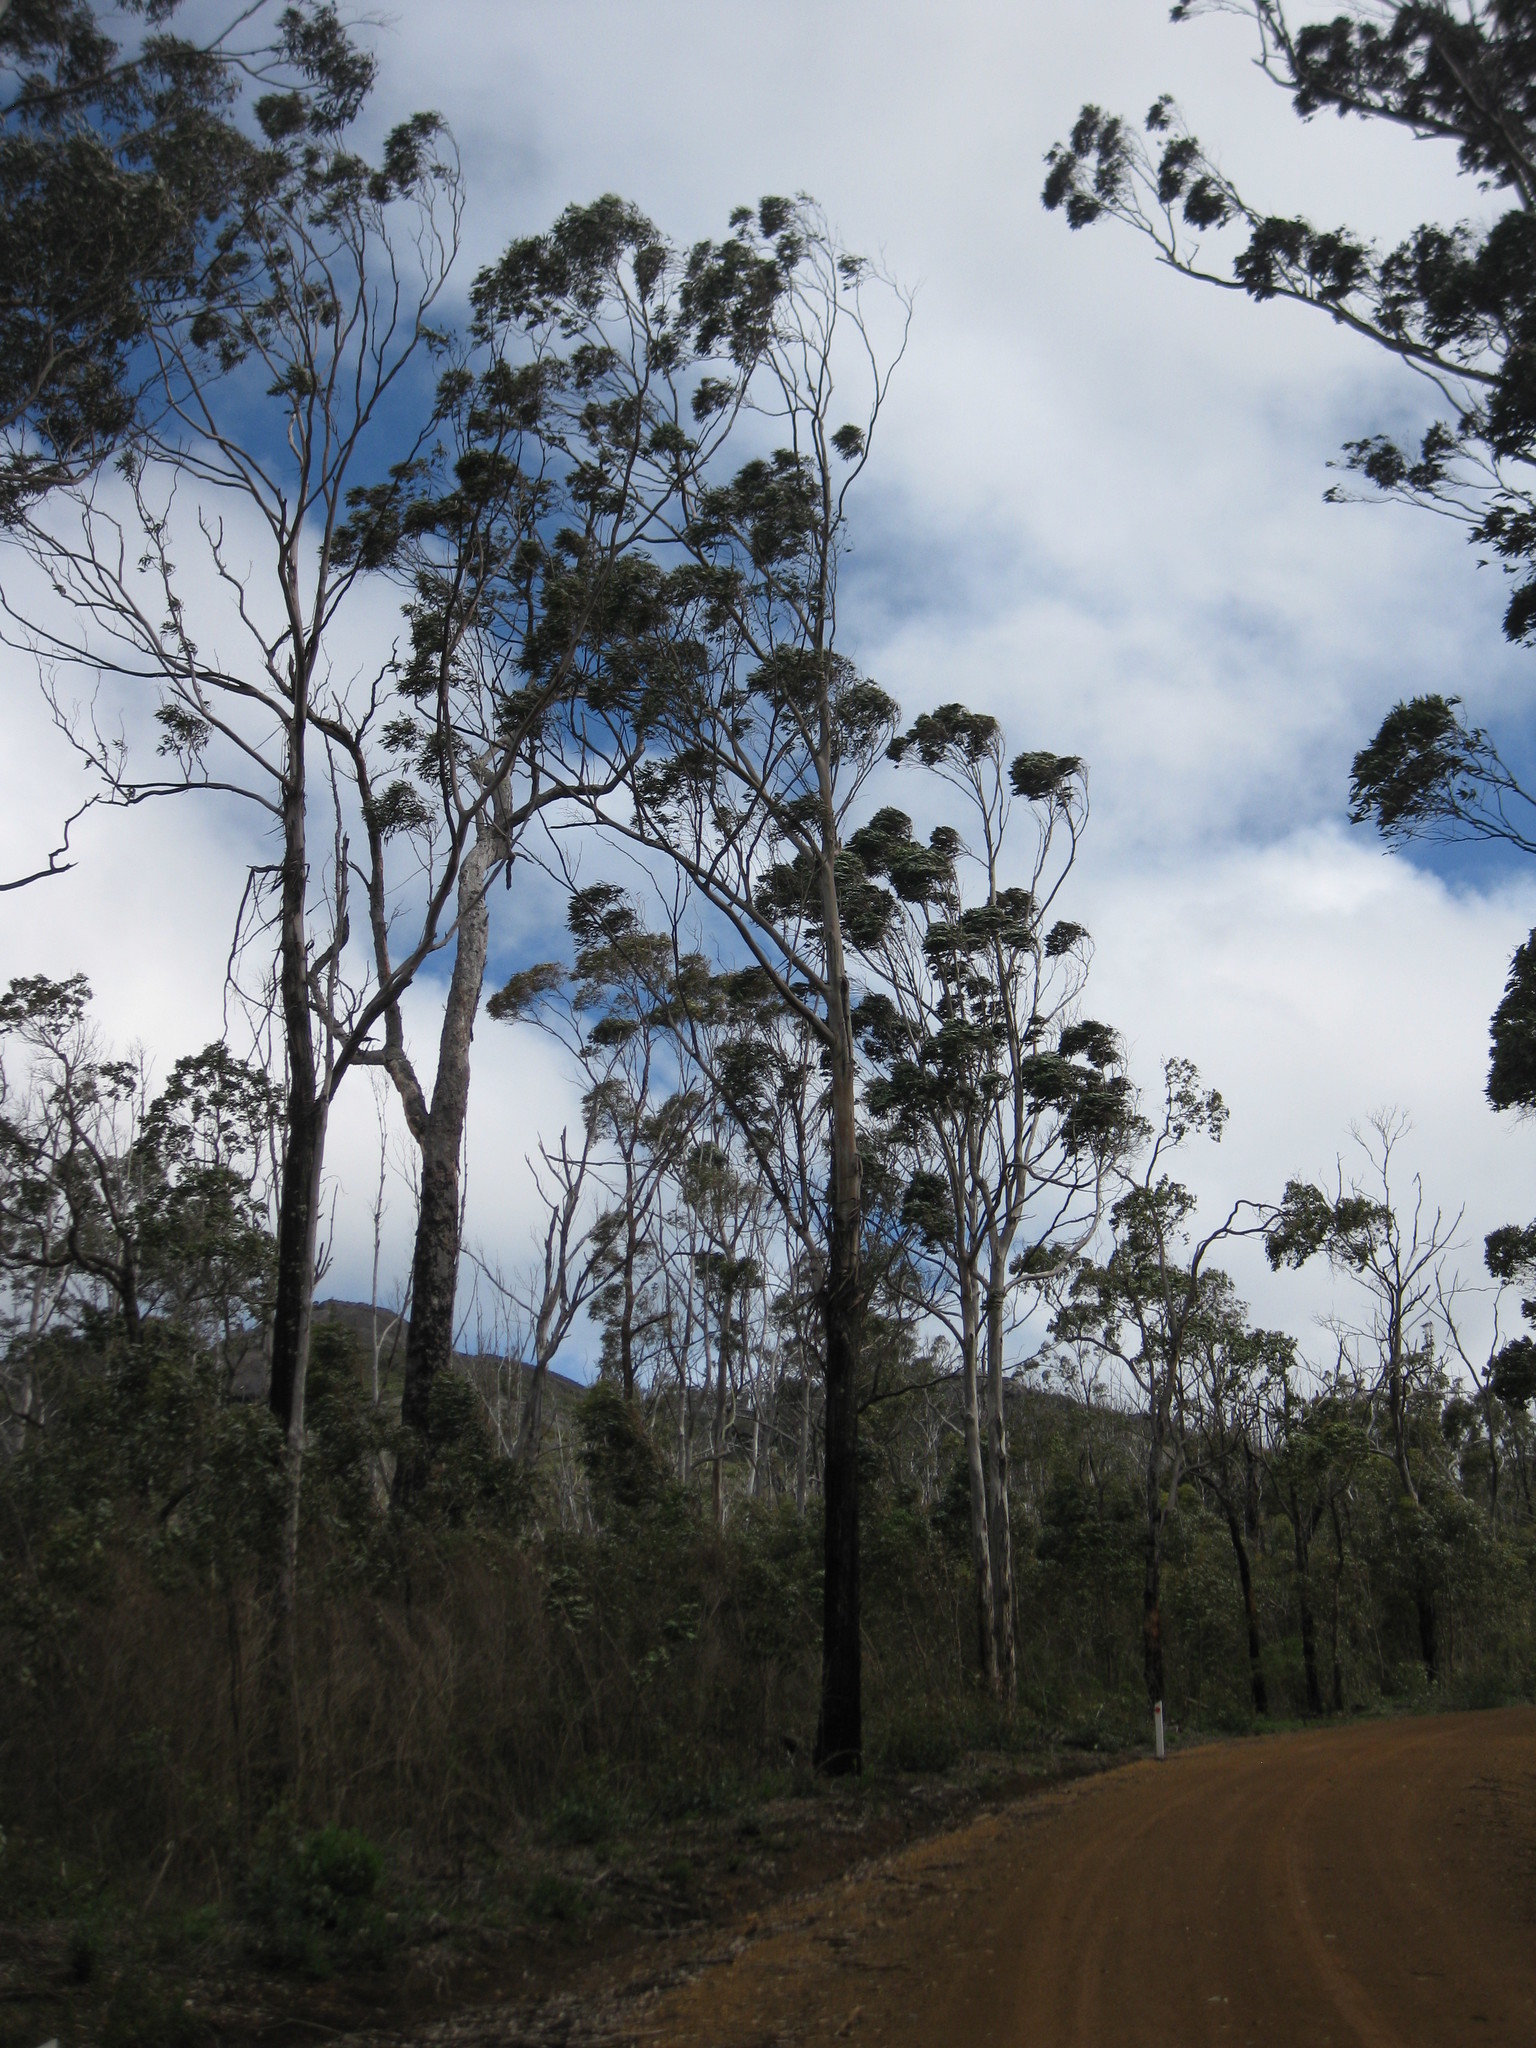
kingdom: Plantae
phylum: Tracheophyta
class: Magnoliopsida
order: Myrtales
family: Myrtaceae
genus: Eucalyptus
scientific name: Eucalyptus diversicolor
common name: Karri
